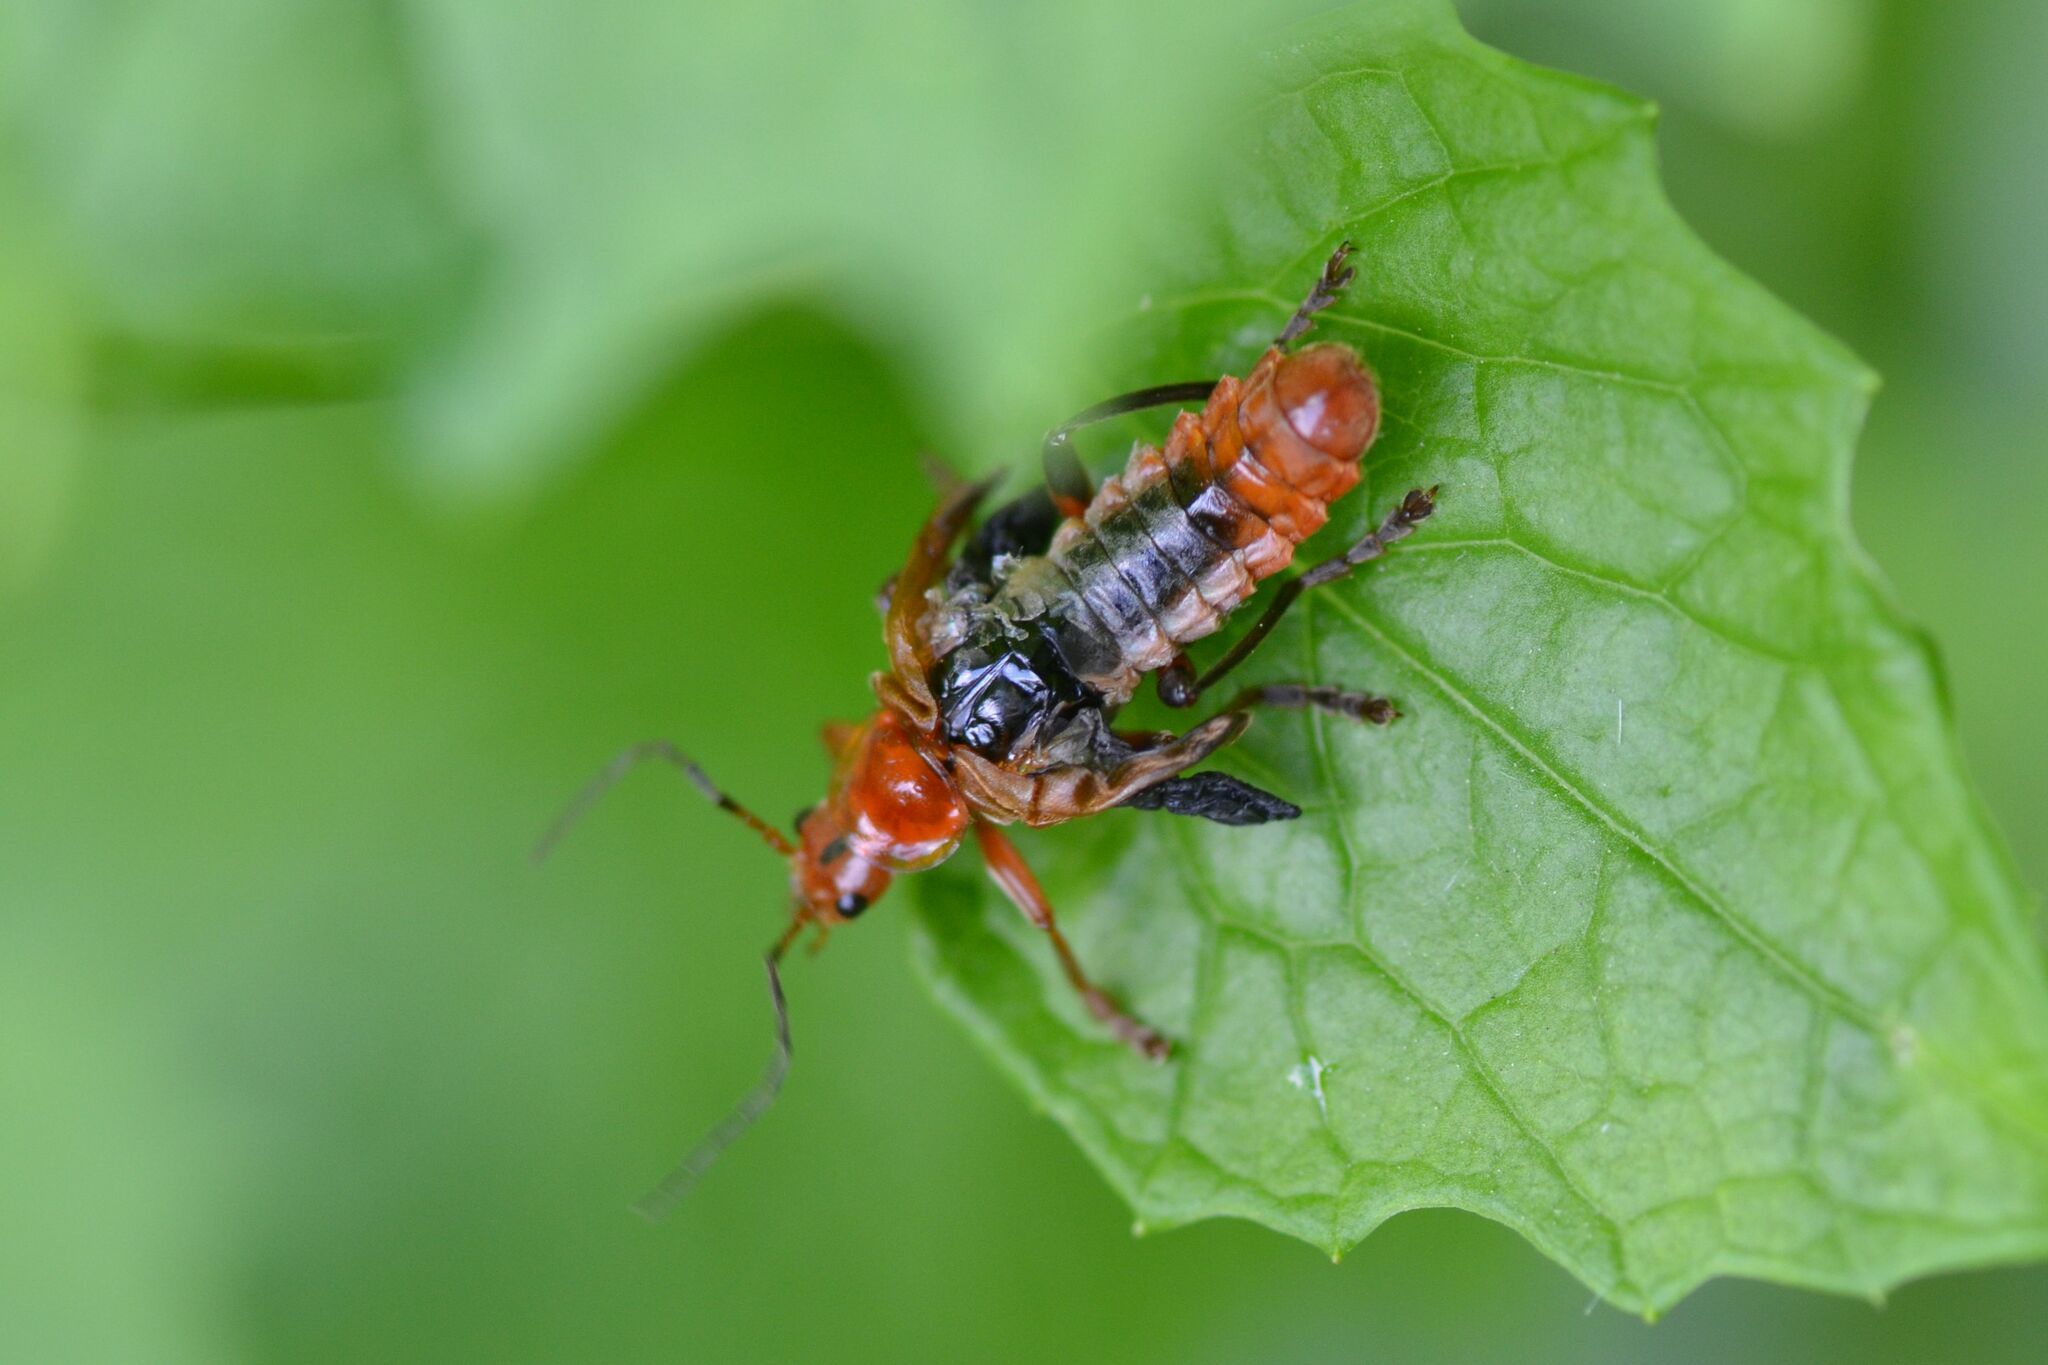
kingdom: Animalia
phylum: Arthropoda
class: Insecta
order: Coleoptera
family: Cantharidae
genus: Cantharis
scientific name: Cantharis livida
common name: Livid soldier beetle
